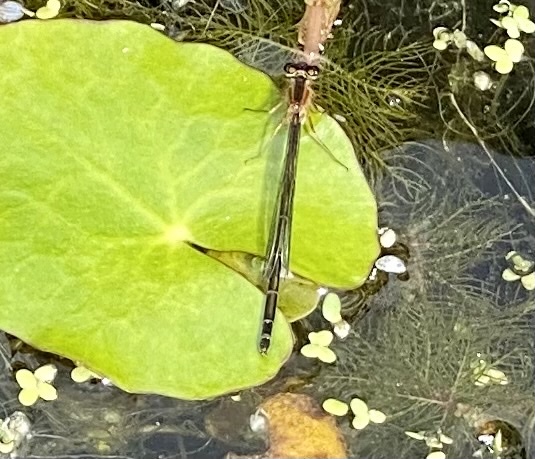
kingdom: Animalia
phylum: Arthropoda
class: Insecta
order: Odonata
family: Coenagrionidae
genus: Ischnura
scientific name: Ischnura elegans
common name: Blue-tailed damselfly
